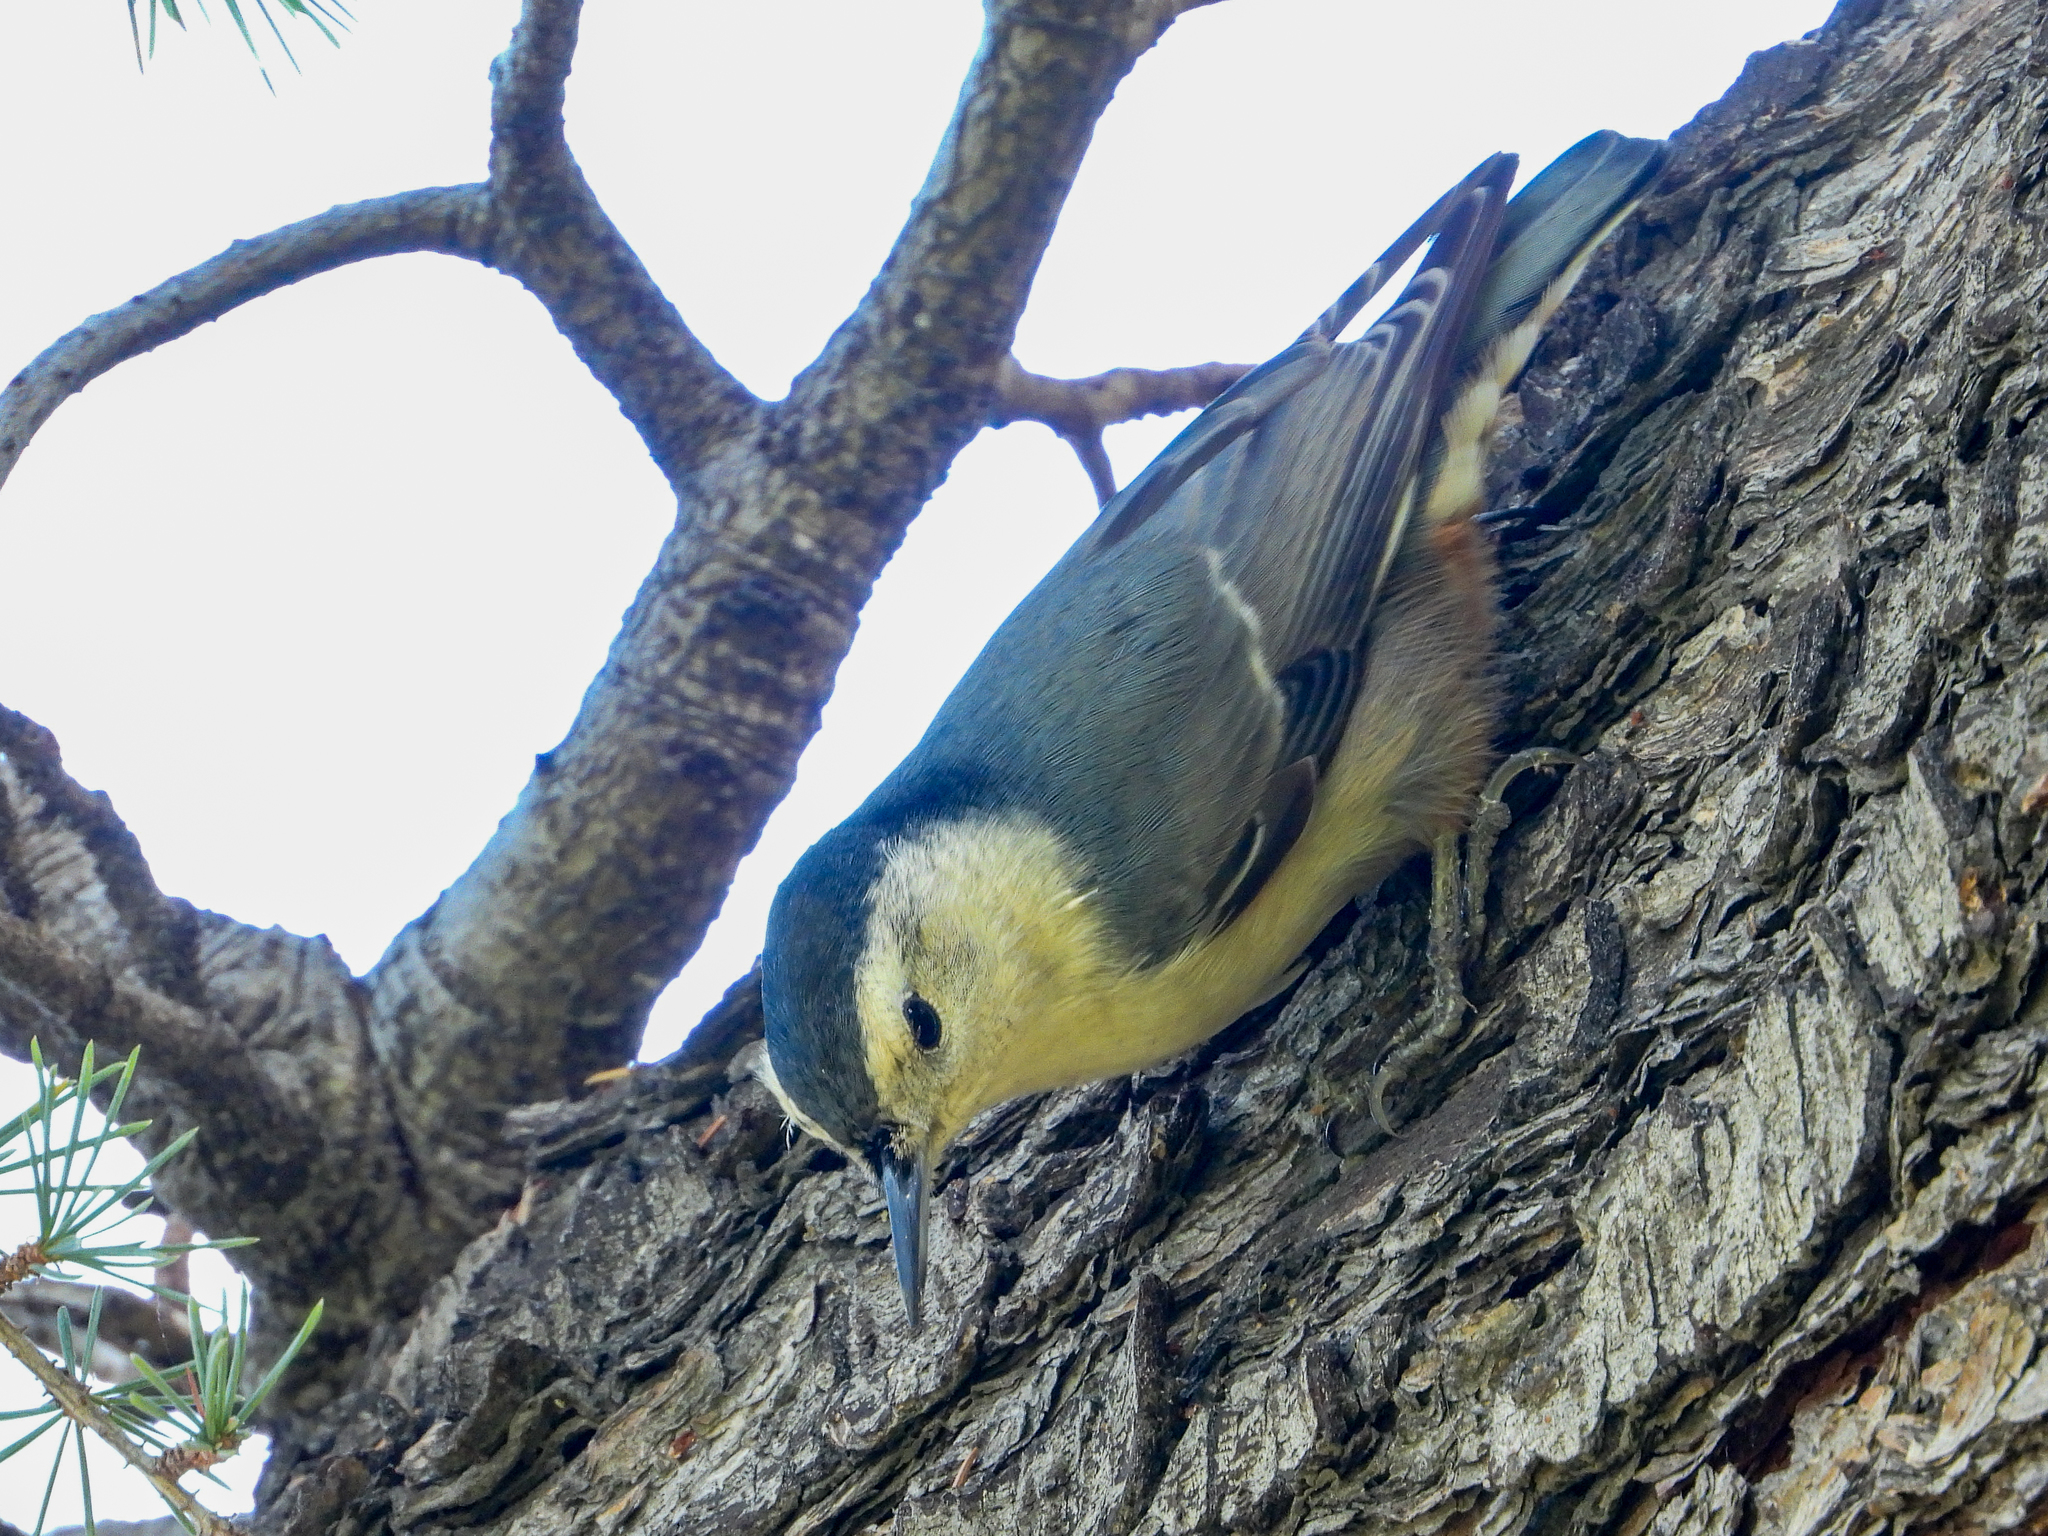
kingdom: Animalia
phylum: Chordata
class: Aves
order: Passeriformes
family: Sittidae
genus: Sitta
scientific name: Sitta carolinensis
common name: White-breasted nuthatch
